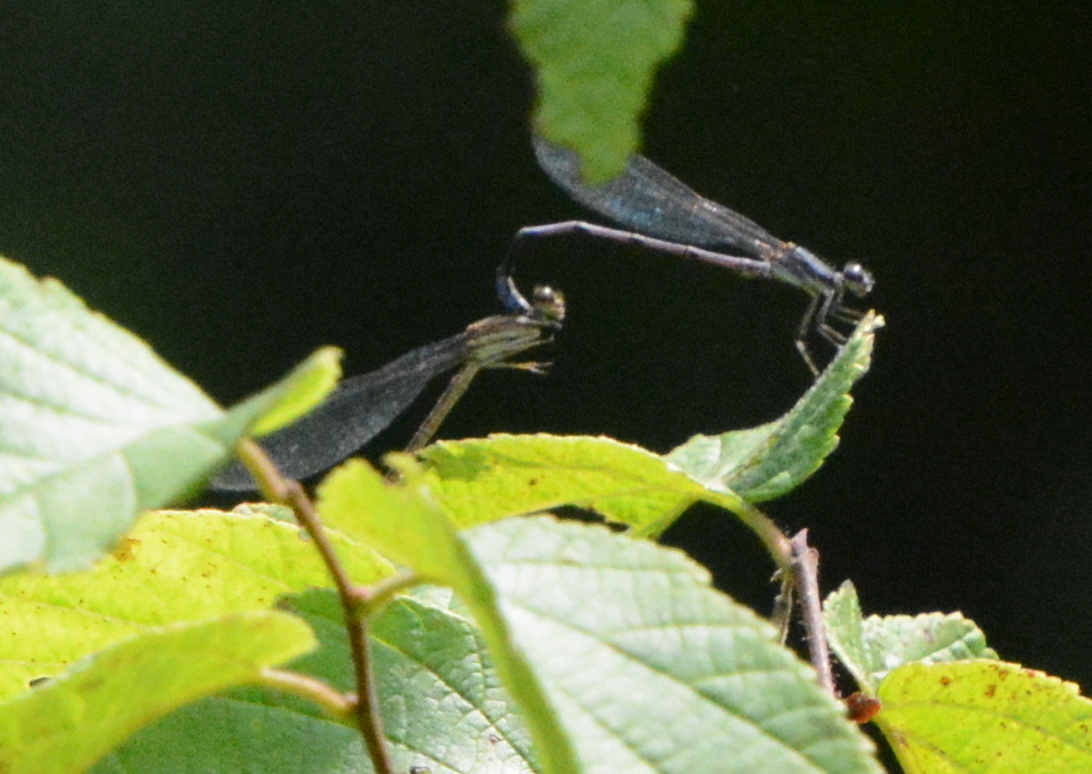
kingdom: Animalia
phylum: Arthropoda
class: Insecta
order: Odonata
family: Coenagrionidae
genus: Argia
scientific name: Argia fumipennis
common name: Variable dancer
